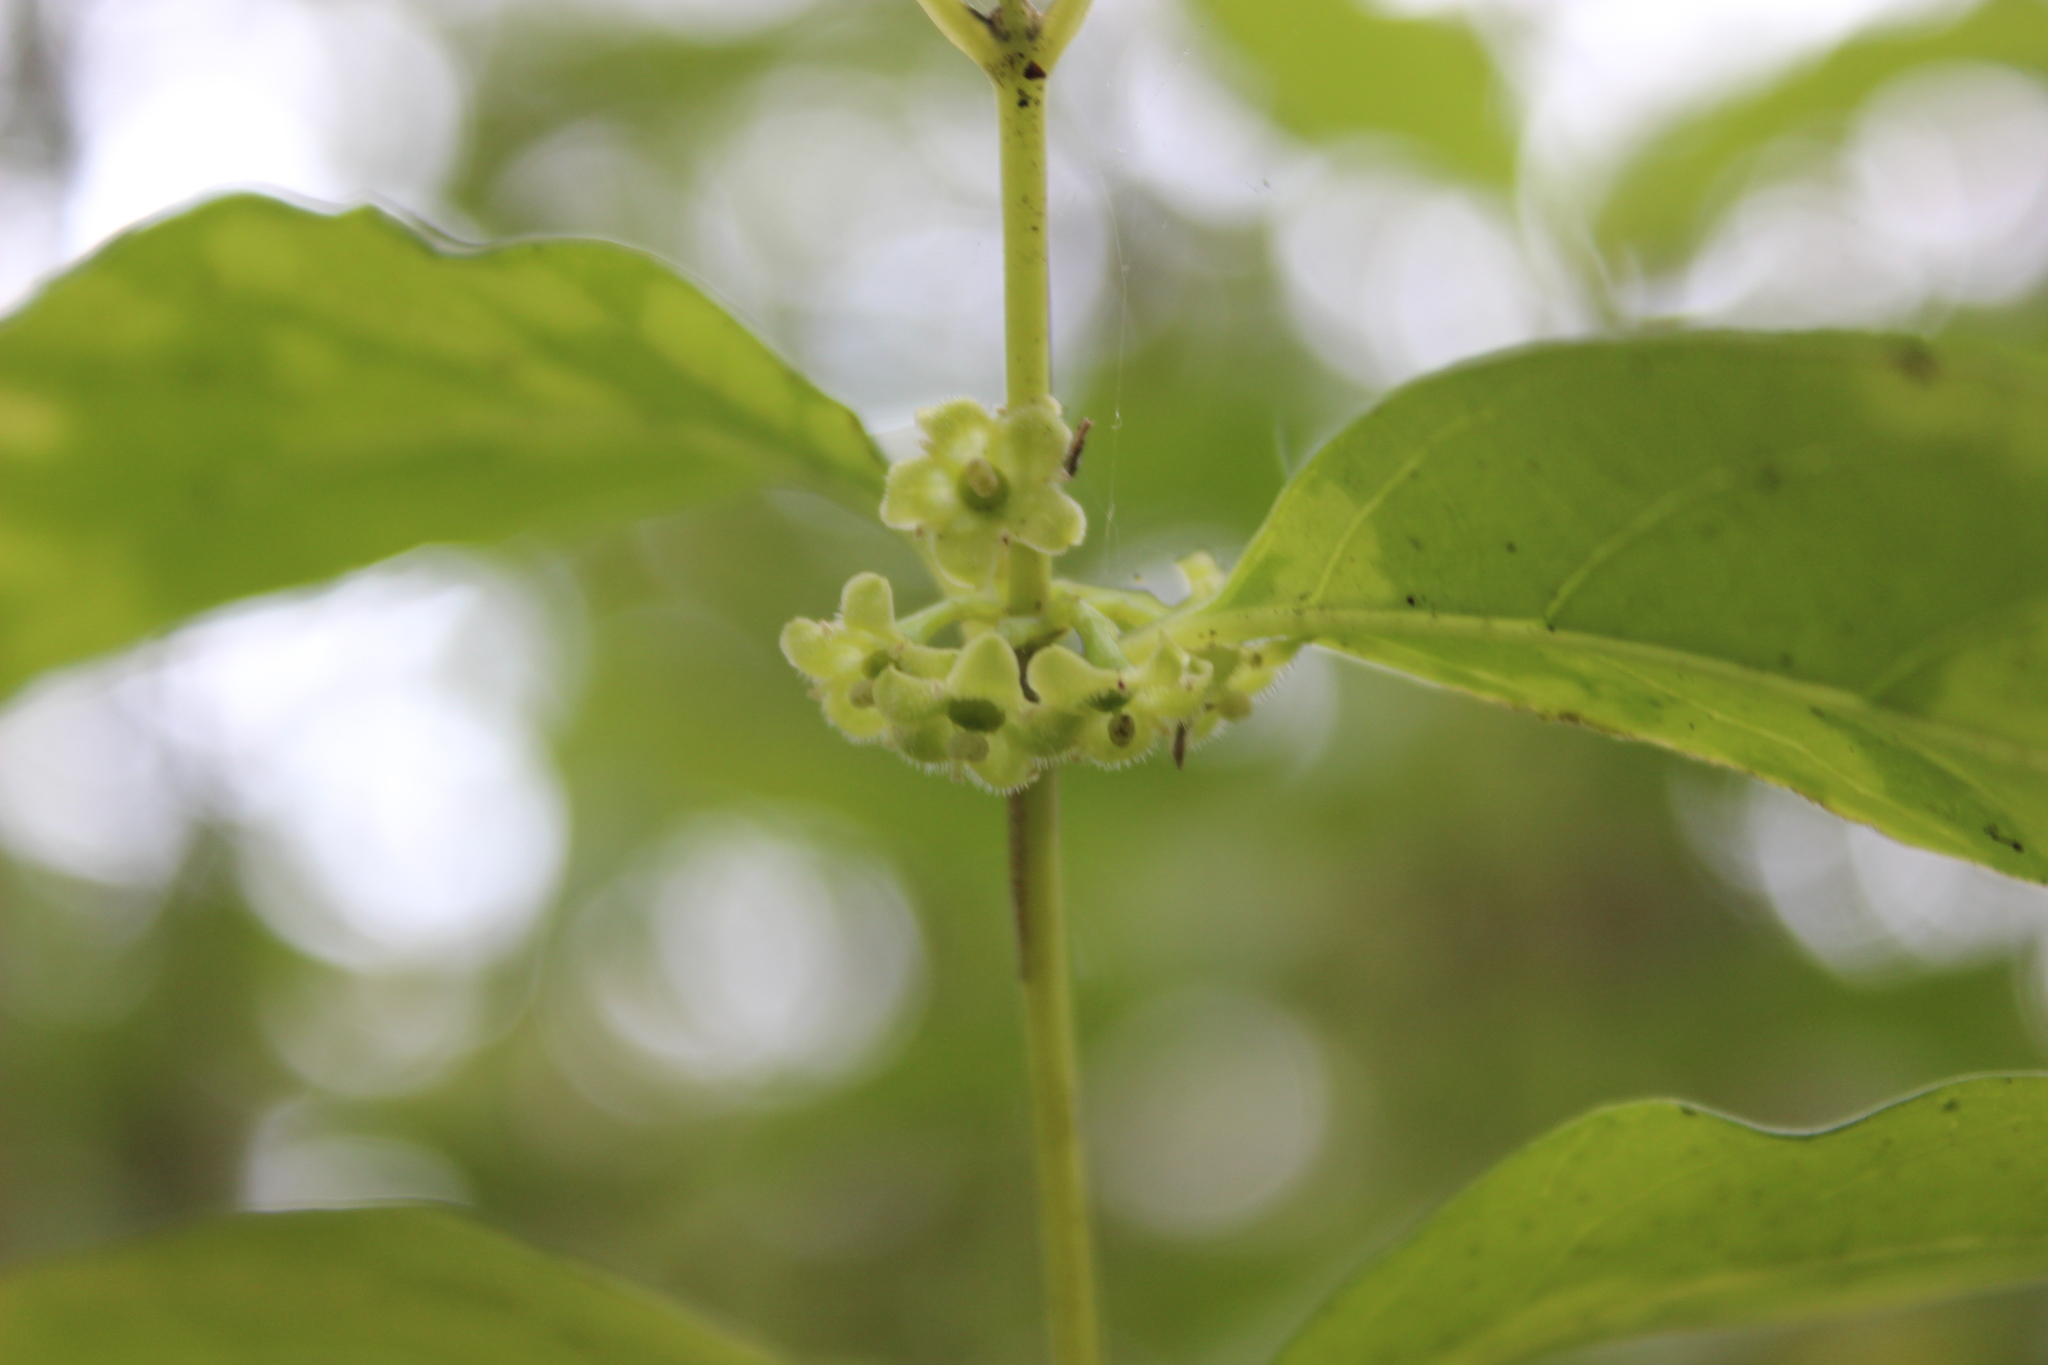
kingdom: Plantae
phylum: Tracheophyta
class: Magnoliopsida
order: Gentianales
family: Loganiaceae
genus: Geniostoma
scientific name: Geniostoma ligustrifolium
